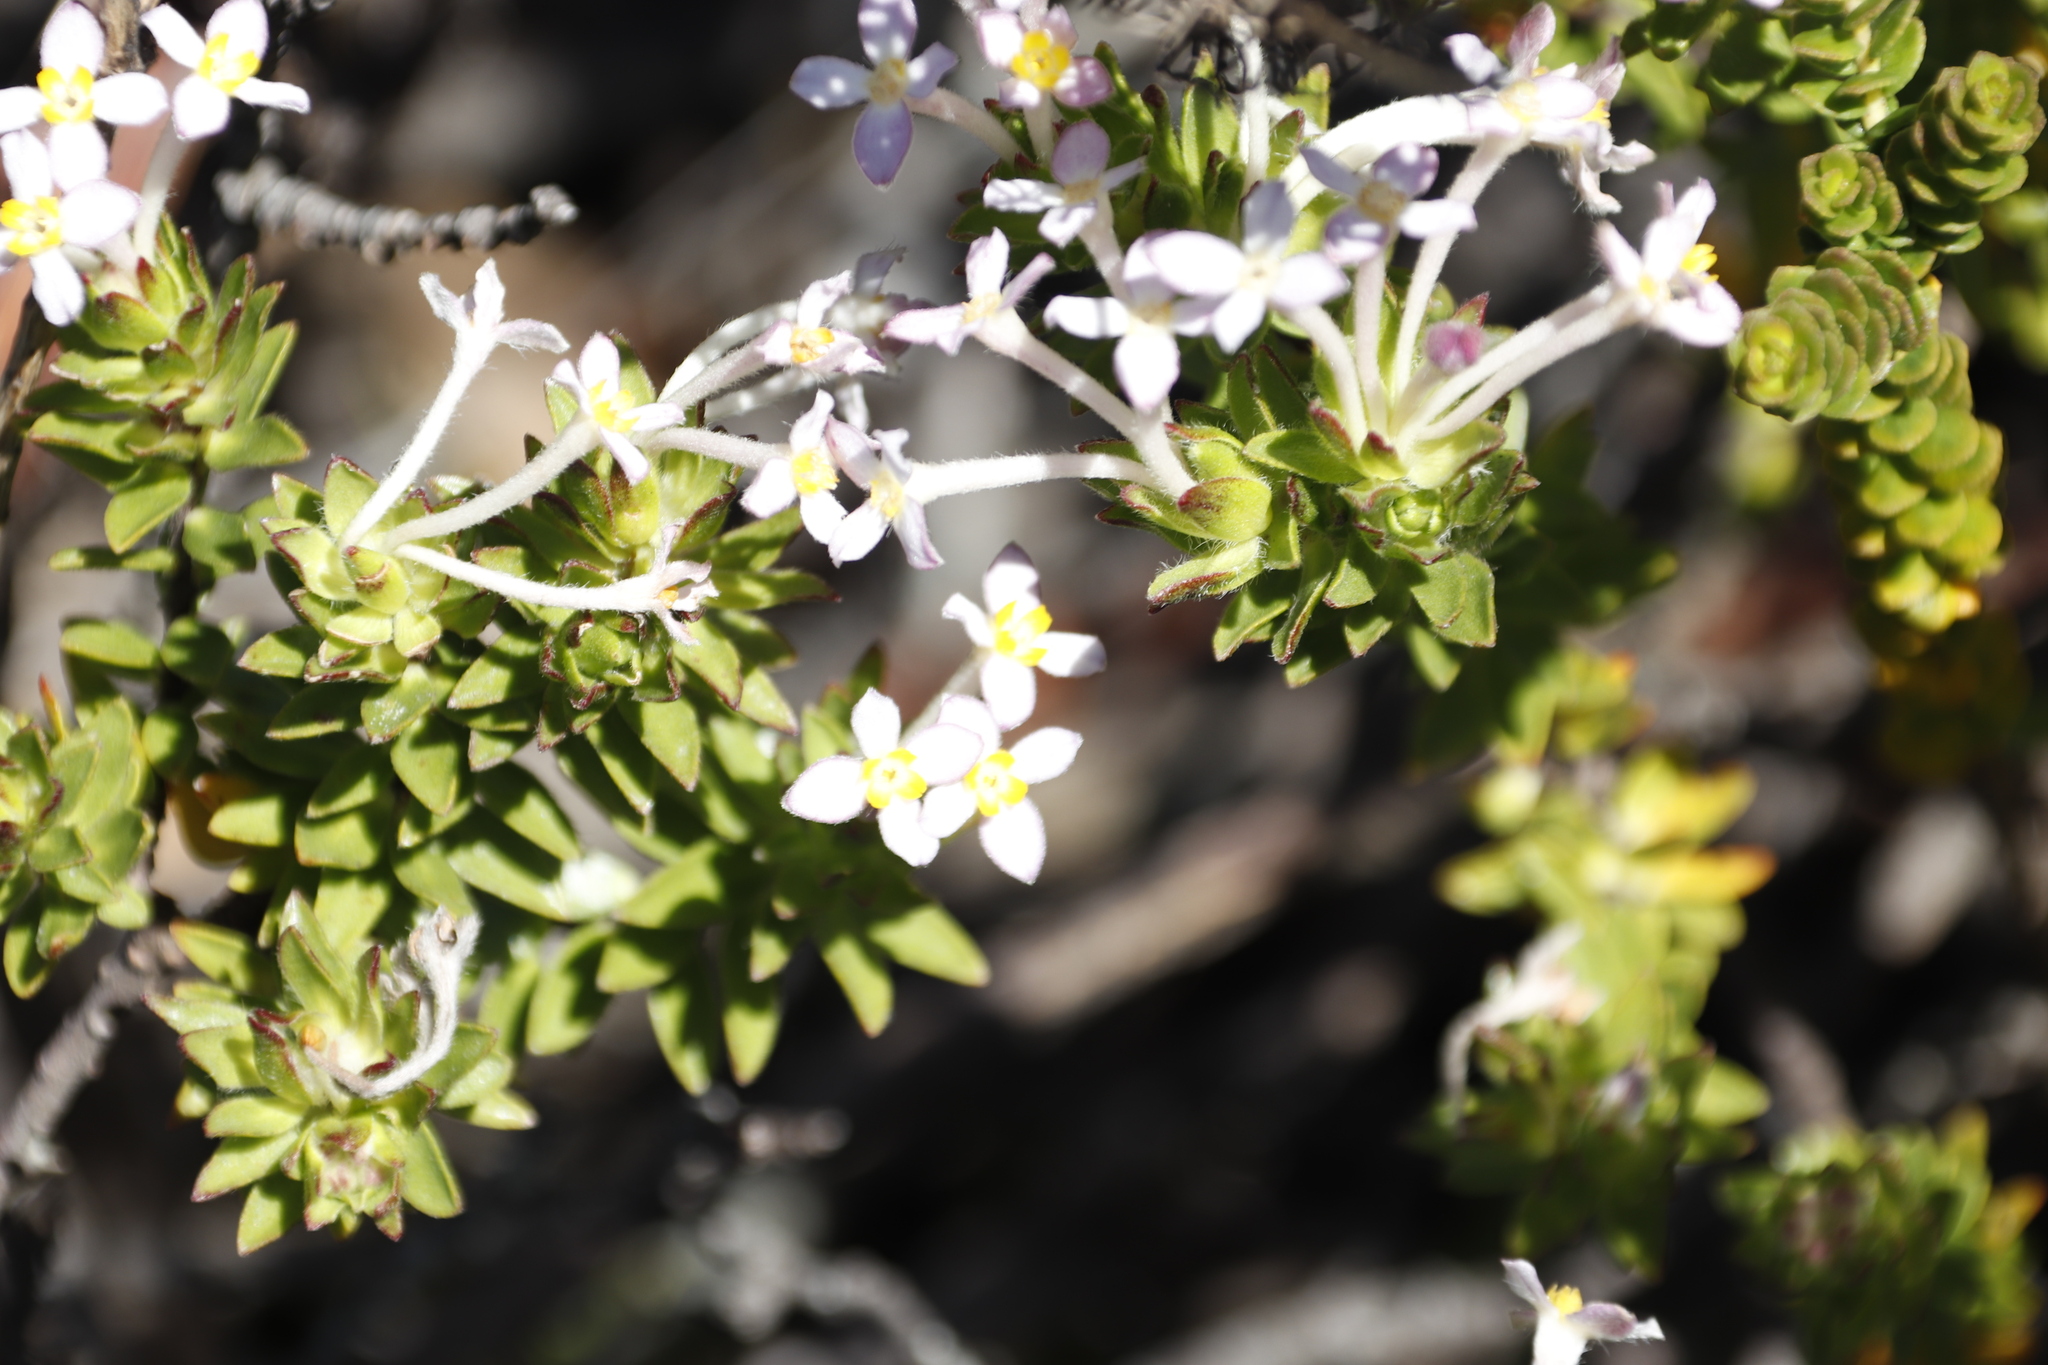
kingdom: Plantae
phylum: Tracheophyta
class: Magnoliopsida
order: Malvales
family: Thymelaeaceae
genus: Gnidia
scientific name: Gnidia tomentosa
